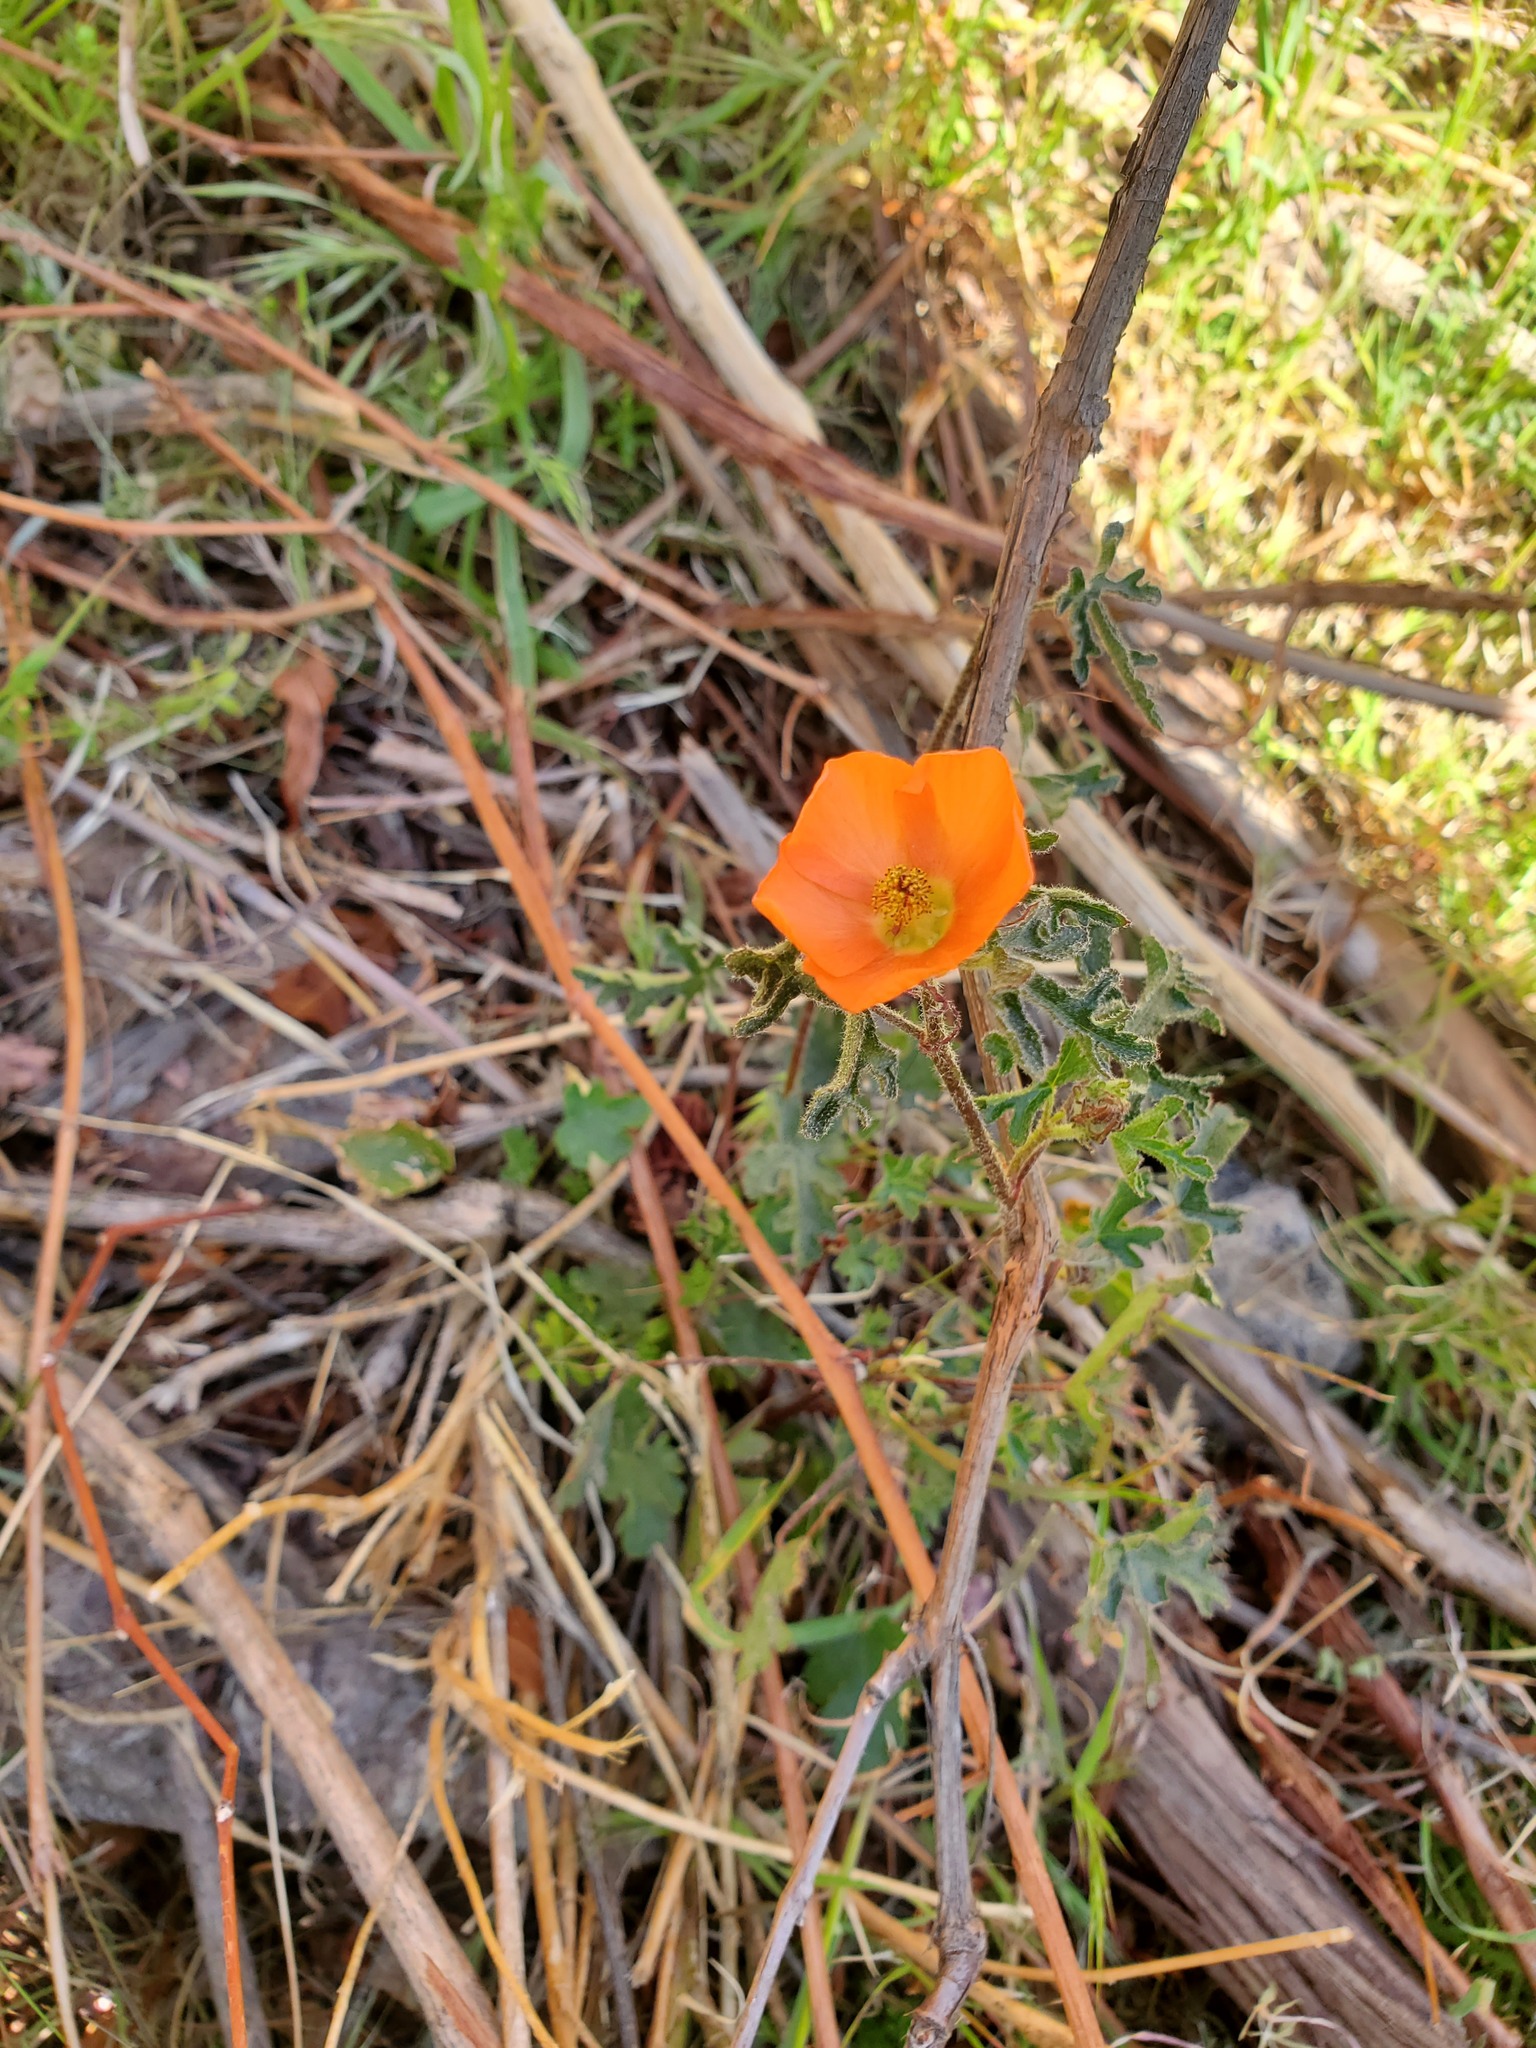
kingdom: Plantae
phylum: Tracheophyta
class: Magnoliopsida
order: Malvales
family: Malvaceae
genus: Sphaeralcea
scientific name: Sphaeralcea rusbyi
